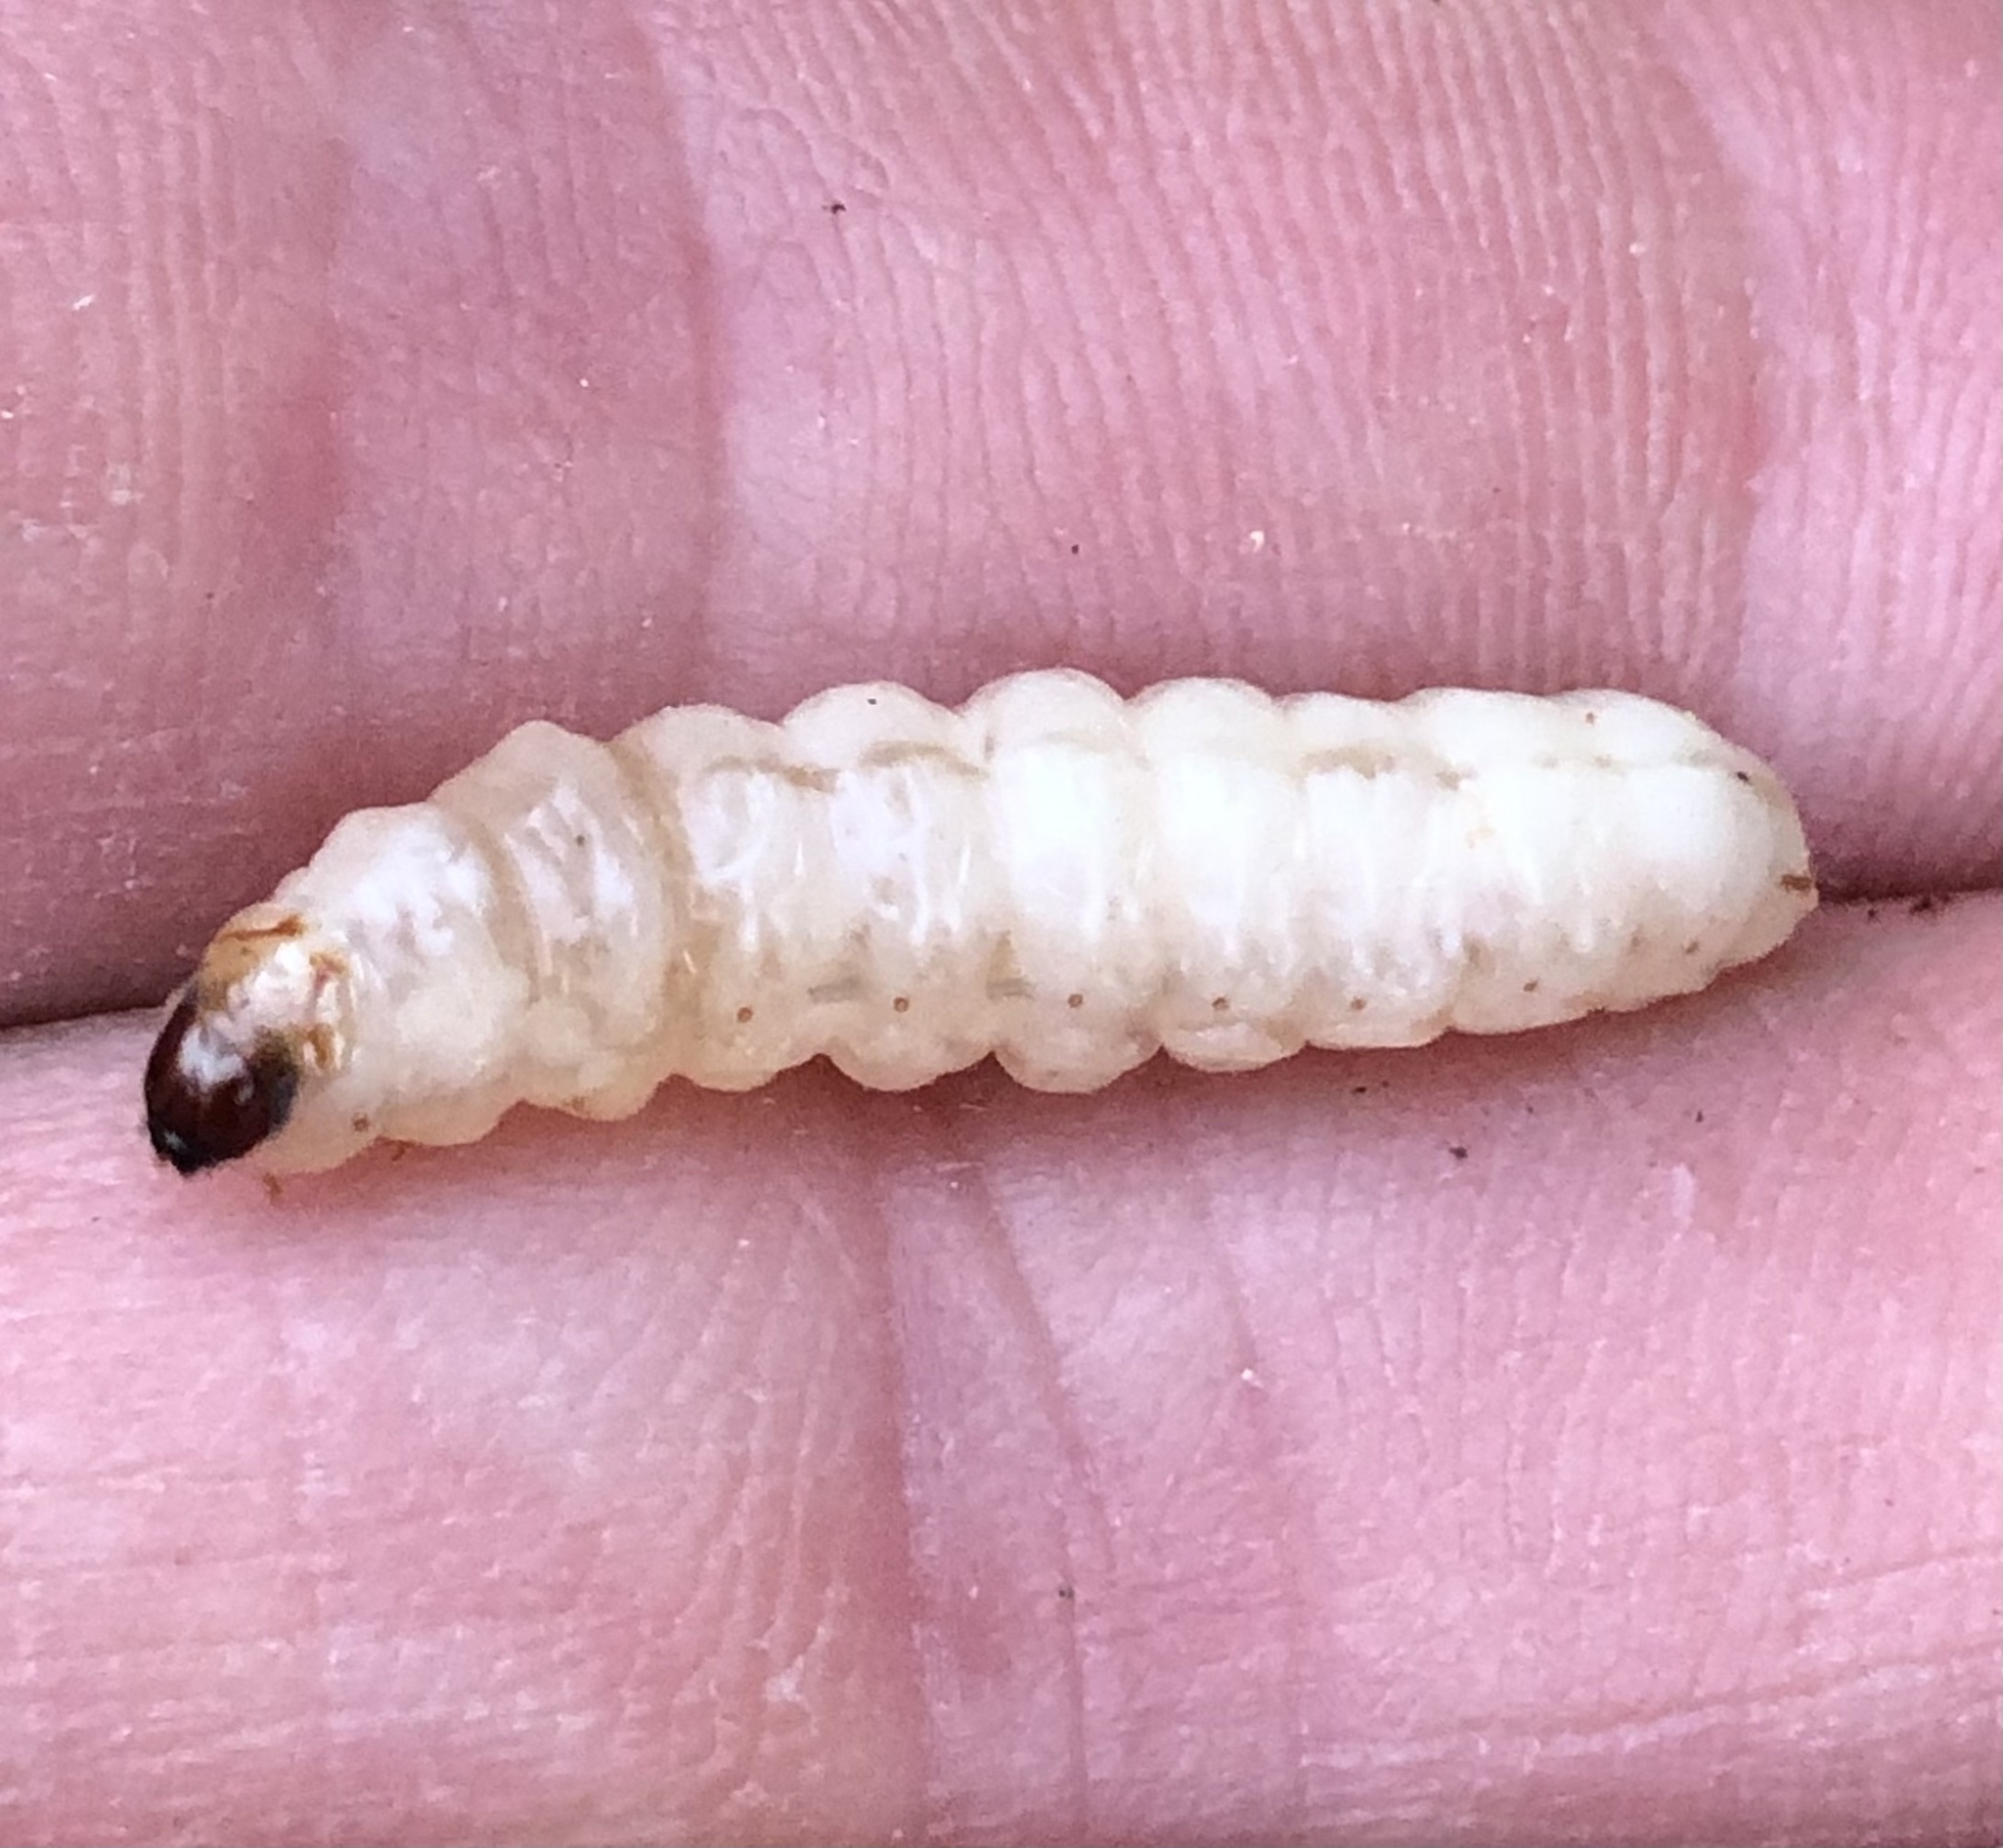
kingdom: Animalia
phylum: Arthropoda
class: Insecta
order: Lepidoptera
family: Sesiidae
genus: Eichlinia
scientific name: Eichlinia cucurbitae
